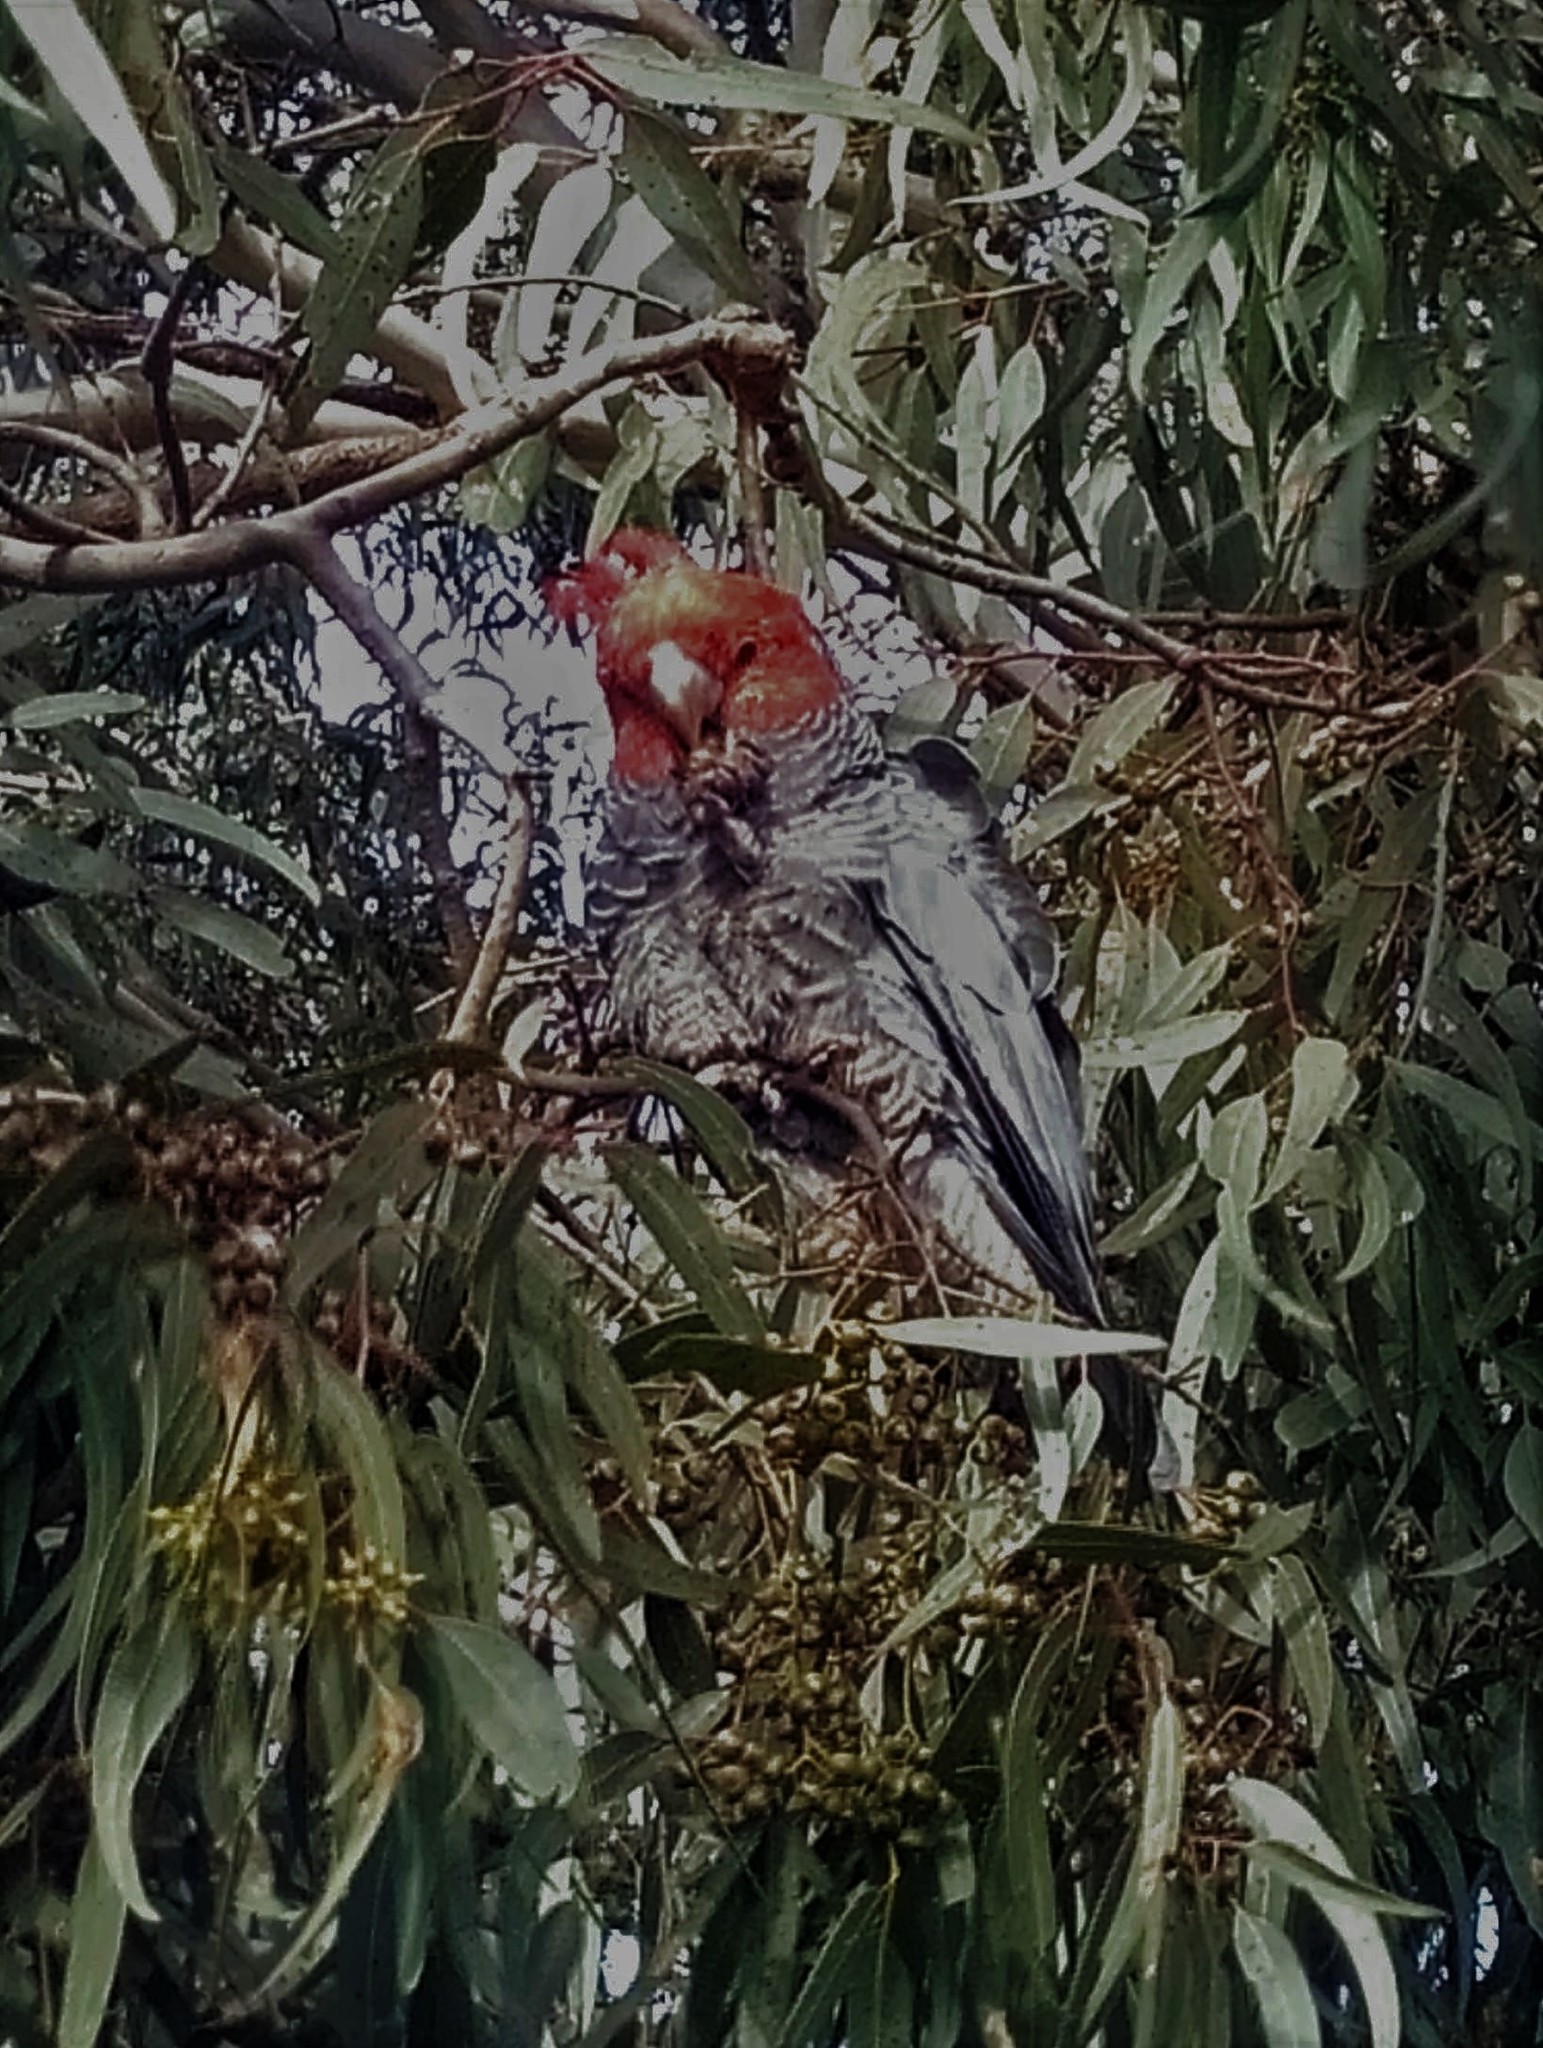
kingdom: Animalia
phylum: Chordata
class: Aves
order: Psittaciformes
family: Psittacidae
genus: Callocephalon
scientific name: Callocephalon fimbriatum
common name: Gang-gang cockatoo
